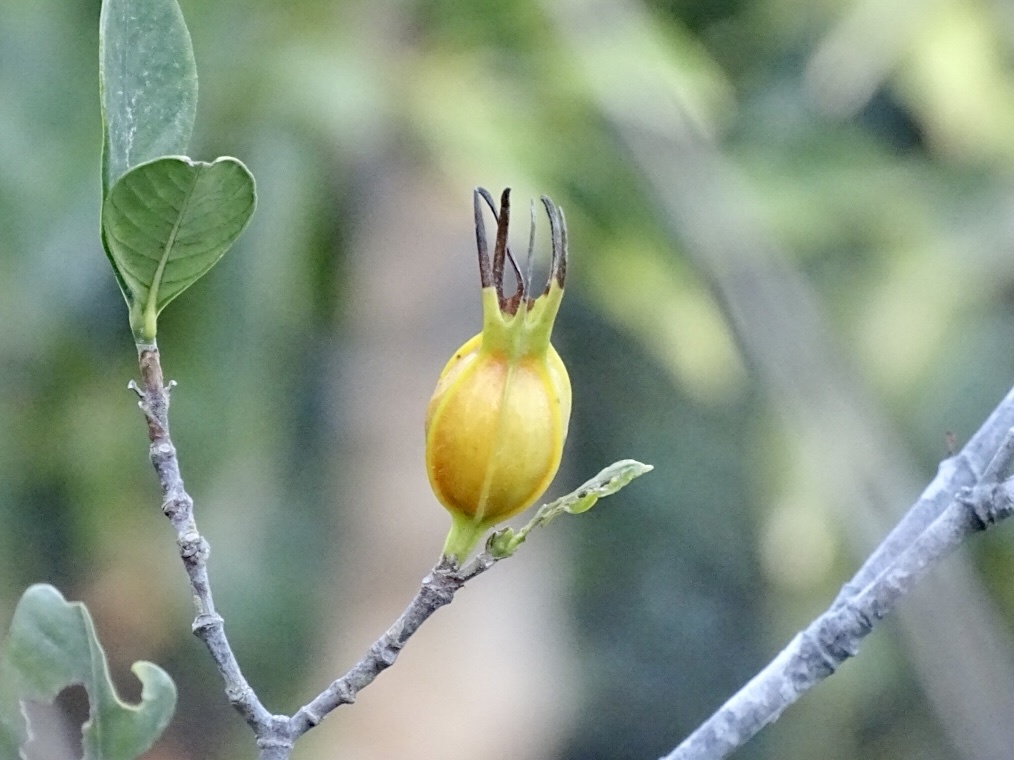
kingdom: Plantae
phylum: Tracheophyta
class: Magnoliopsida
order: Gentianales
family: Rubiaceae
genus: Gardenia
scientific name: Gardenia jasminoides
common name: Cape-jasmine
